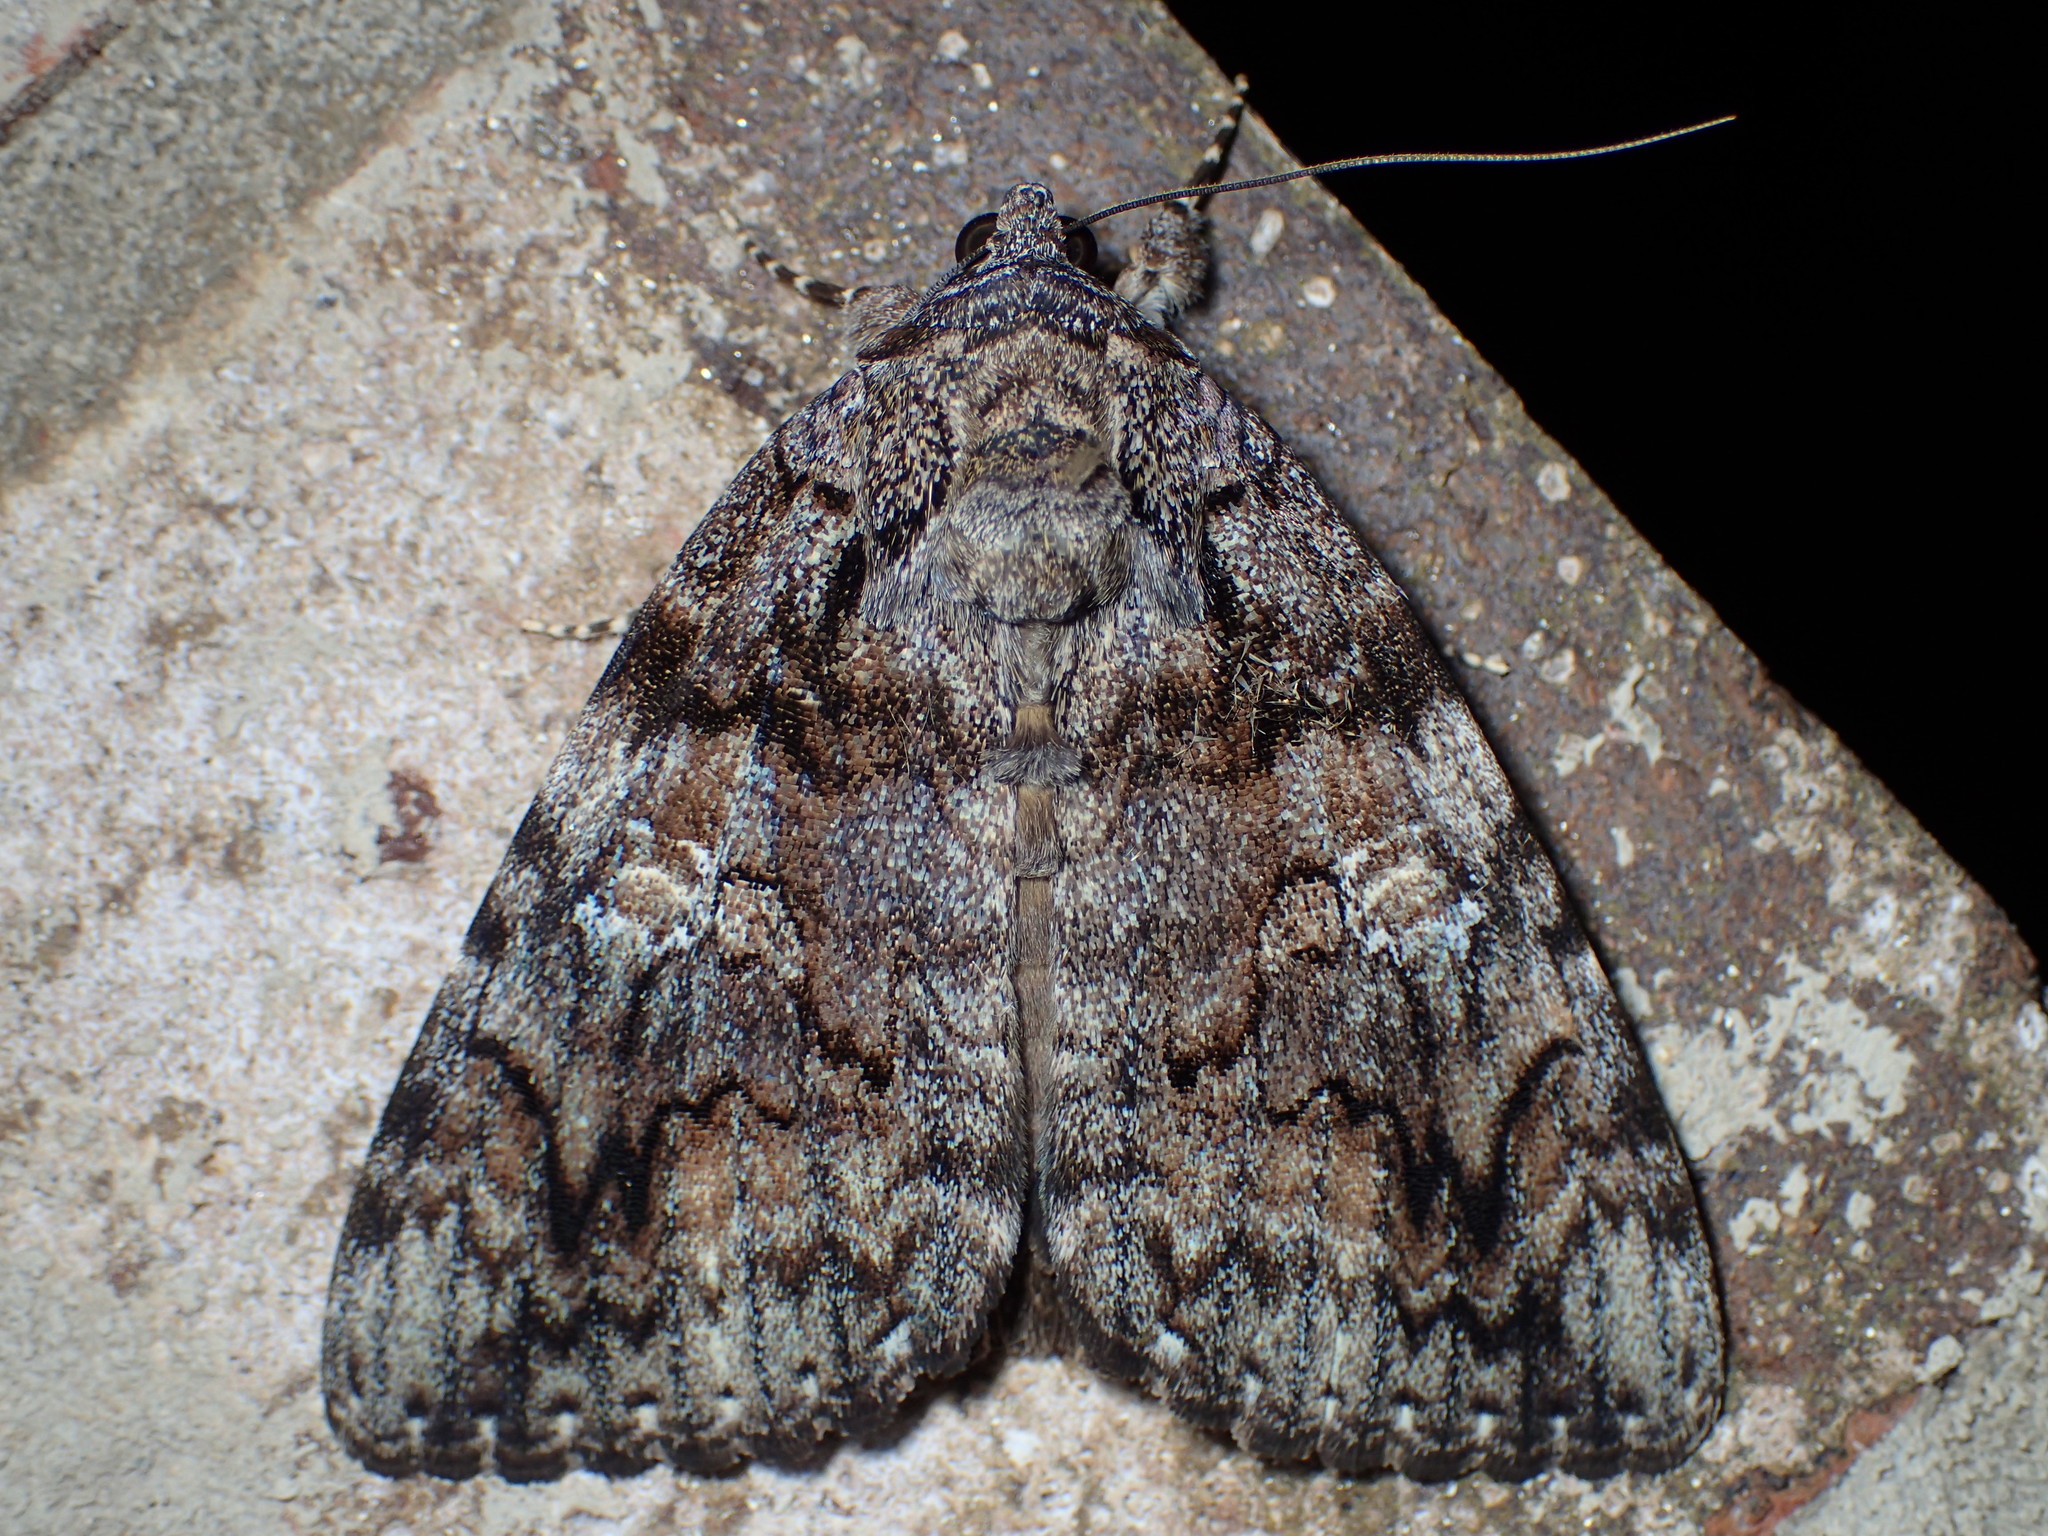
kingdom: Animalia
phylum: Arthropoda
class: Insecta
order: Lepidoptera
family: Erebidae
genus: Catocala
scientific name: Catocala ilia
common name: Ilia underwing
